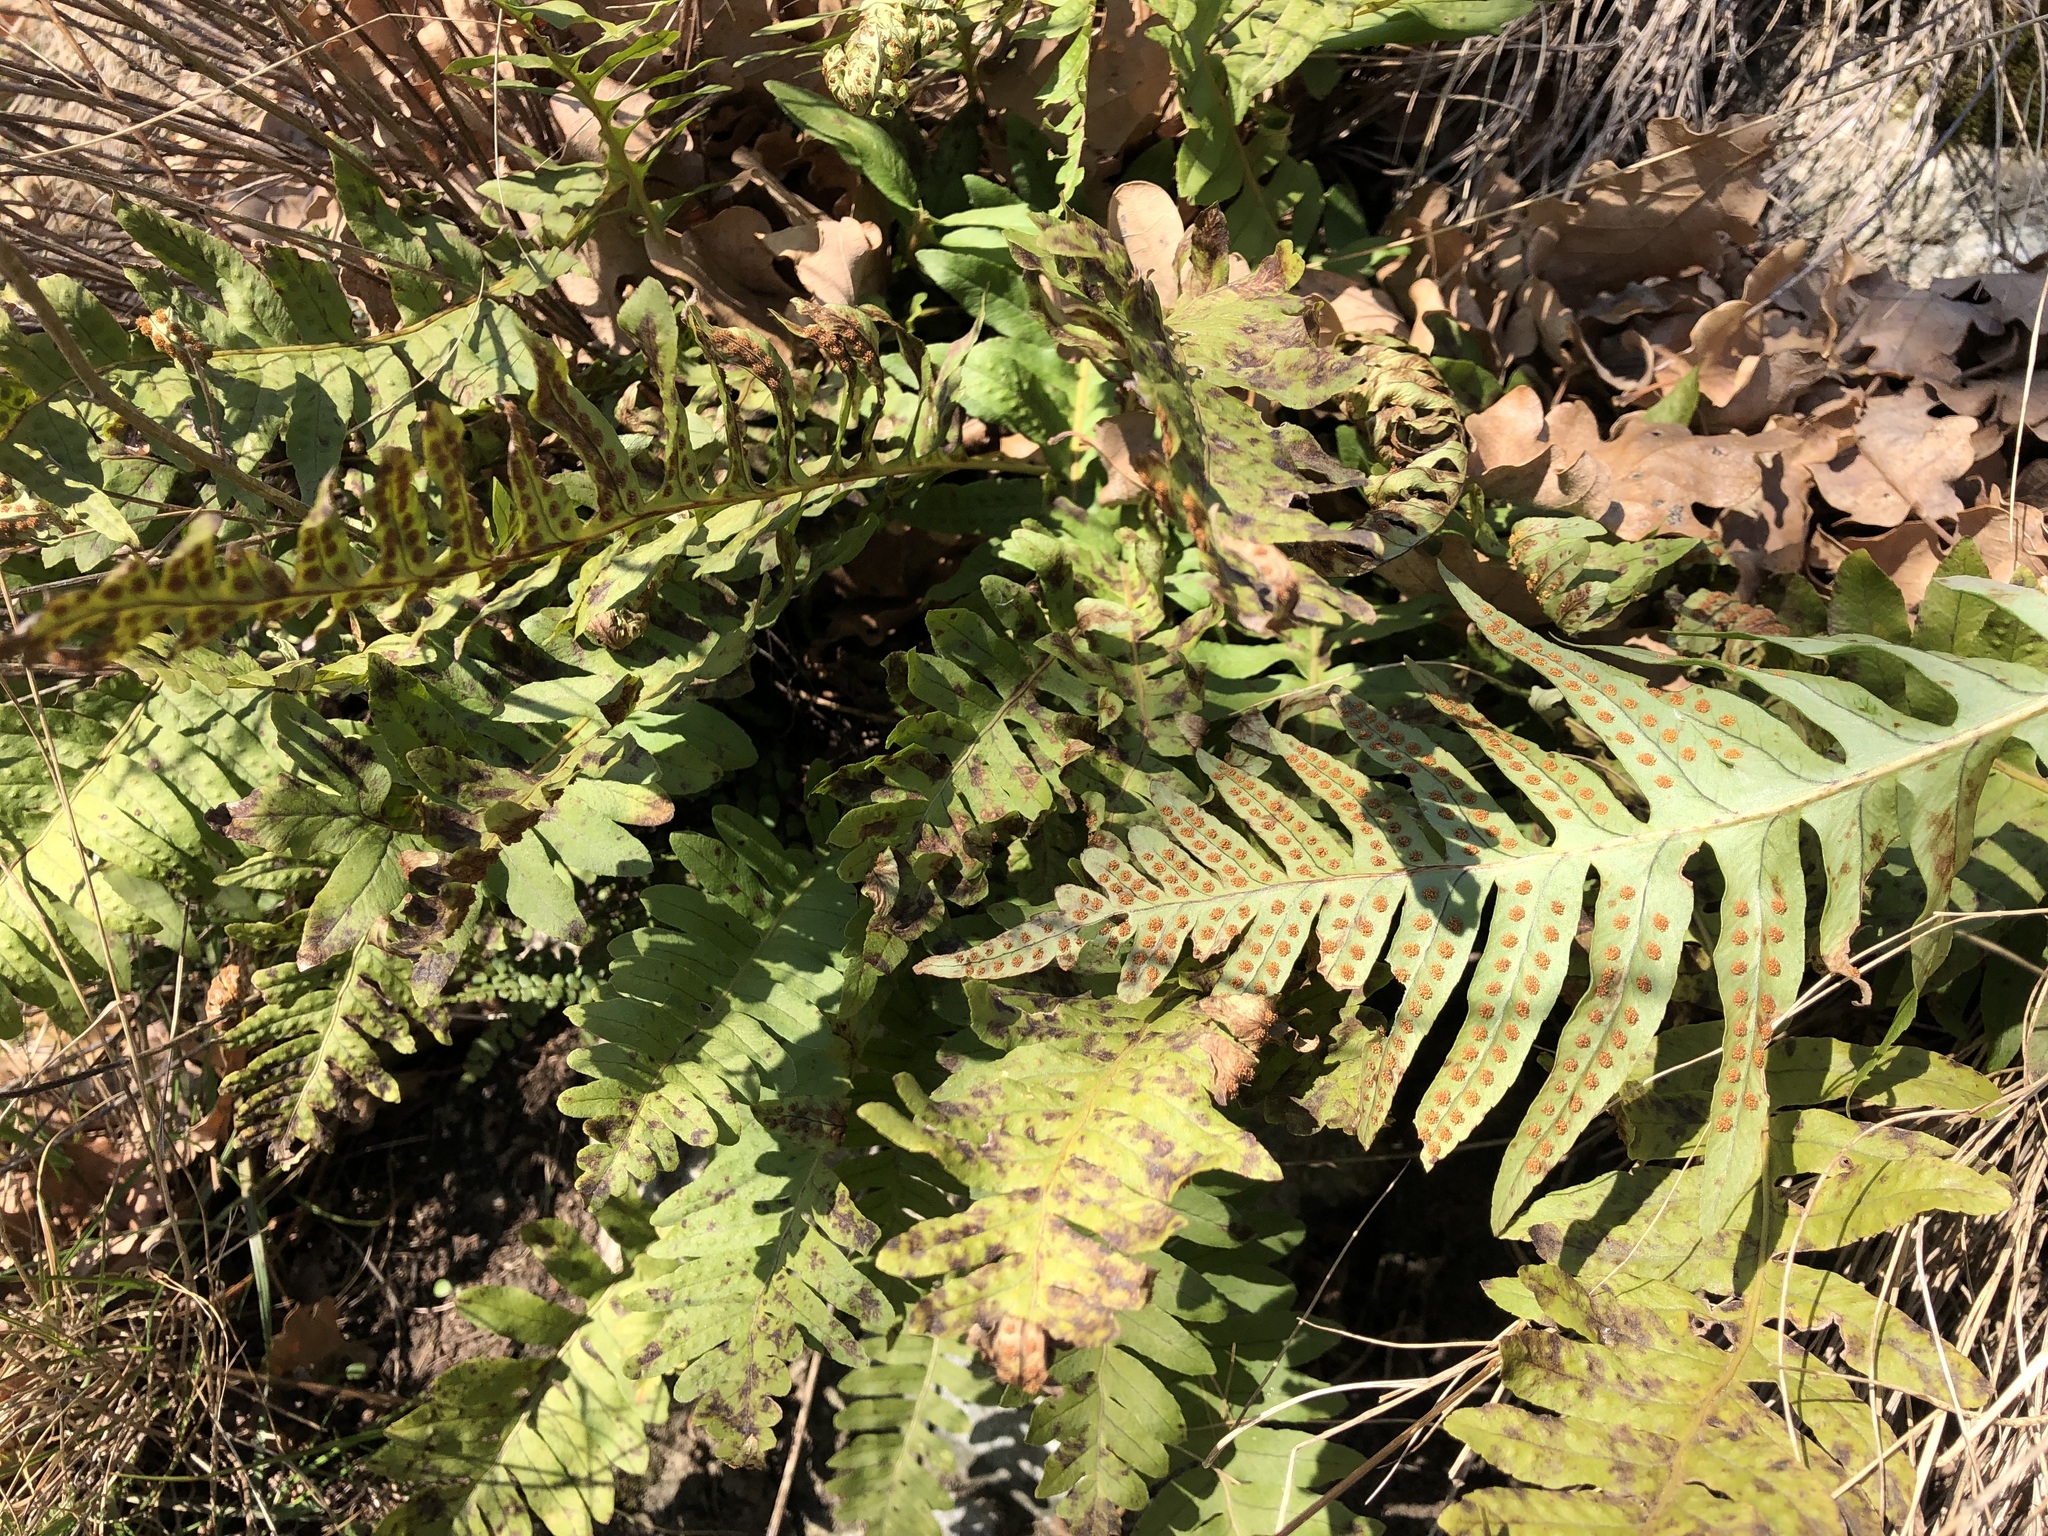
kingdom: Plantae
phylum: Tracheophyta
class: Polypodiopsida
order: Polypodiales
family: Polypodiaceae
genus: Polypodium
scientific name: Polypodium vulgare
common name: Common polypody
